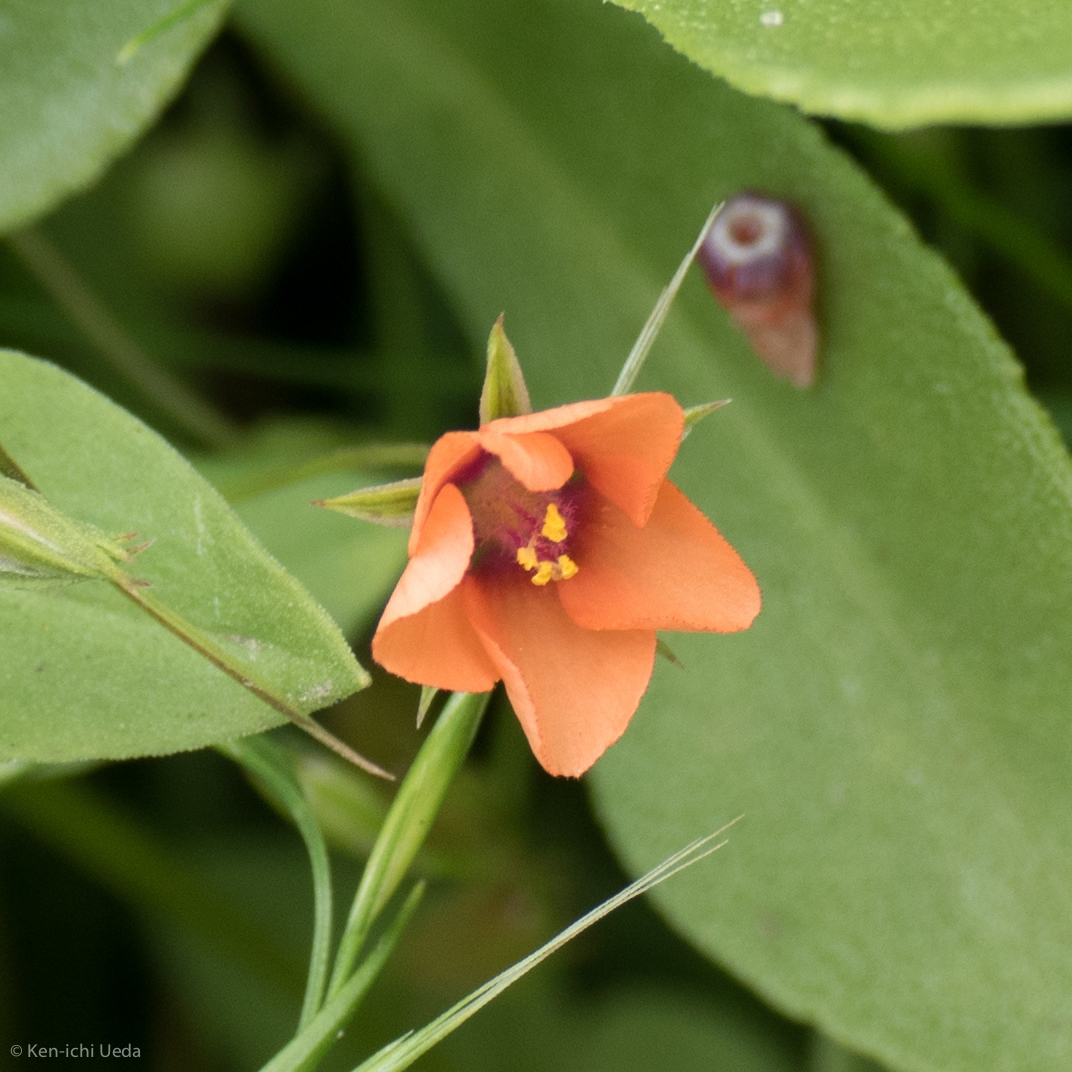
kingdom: Plantae
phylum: Tracheophyta
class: Magnoliopsida
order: Ericales
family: Primulaceae
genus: Lysimachia
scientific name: Lysimachia arvensis
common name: Scarlet pimpernel
